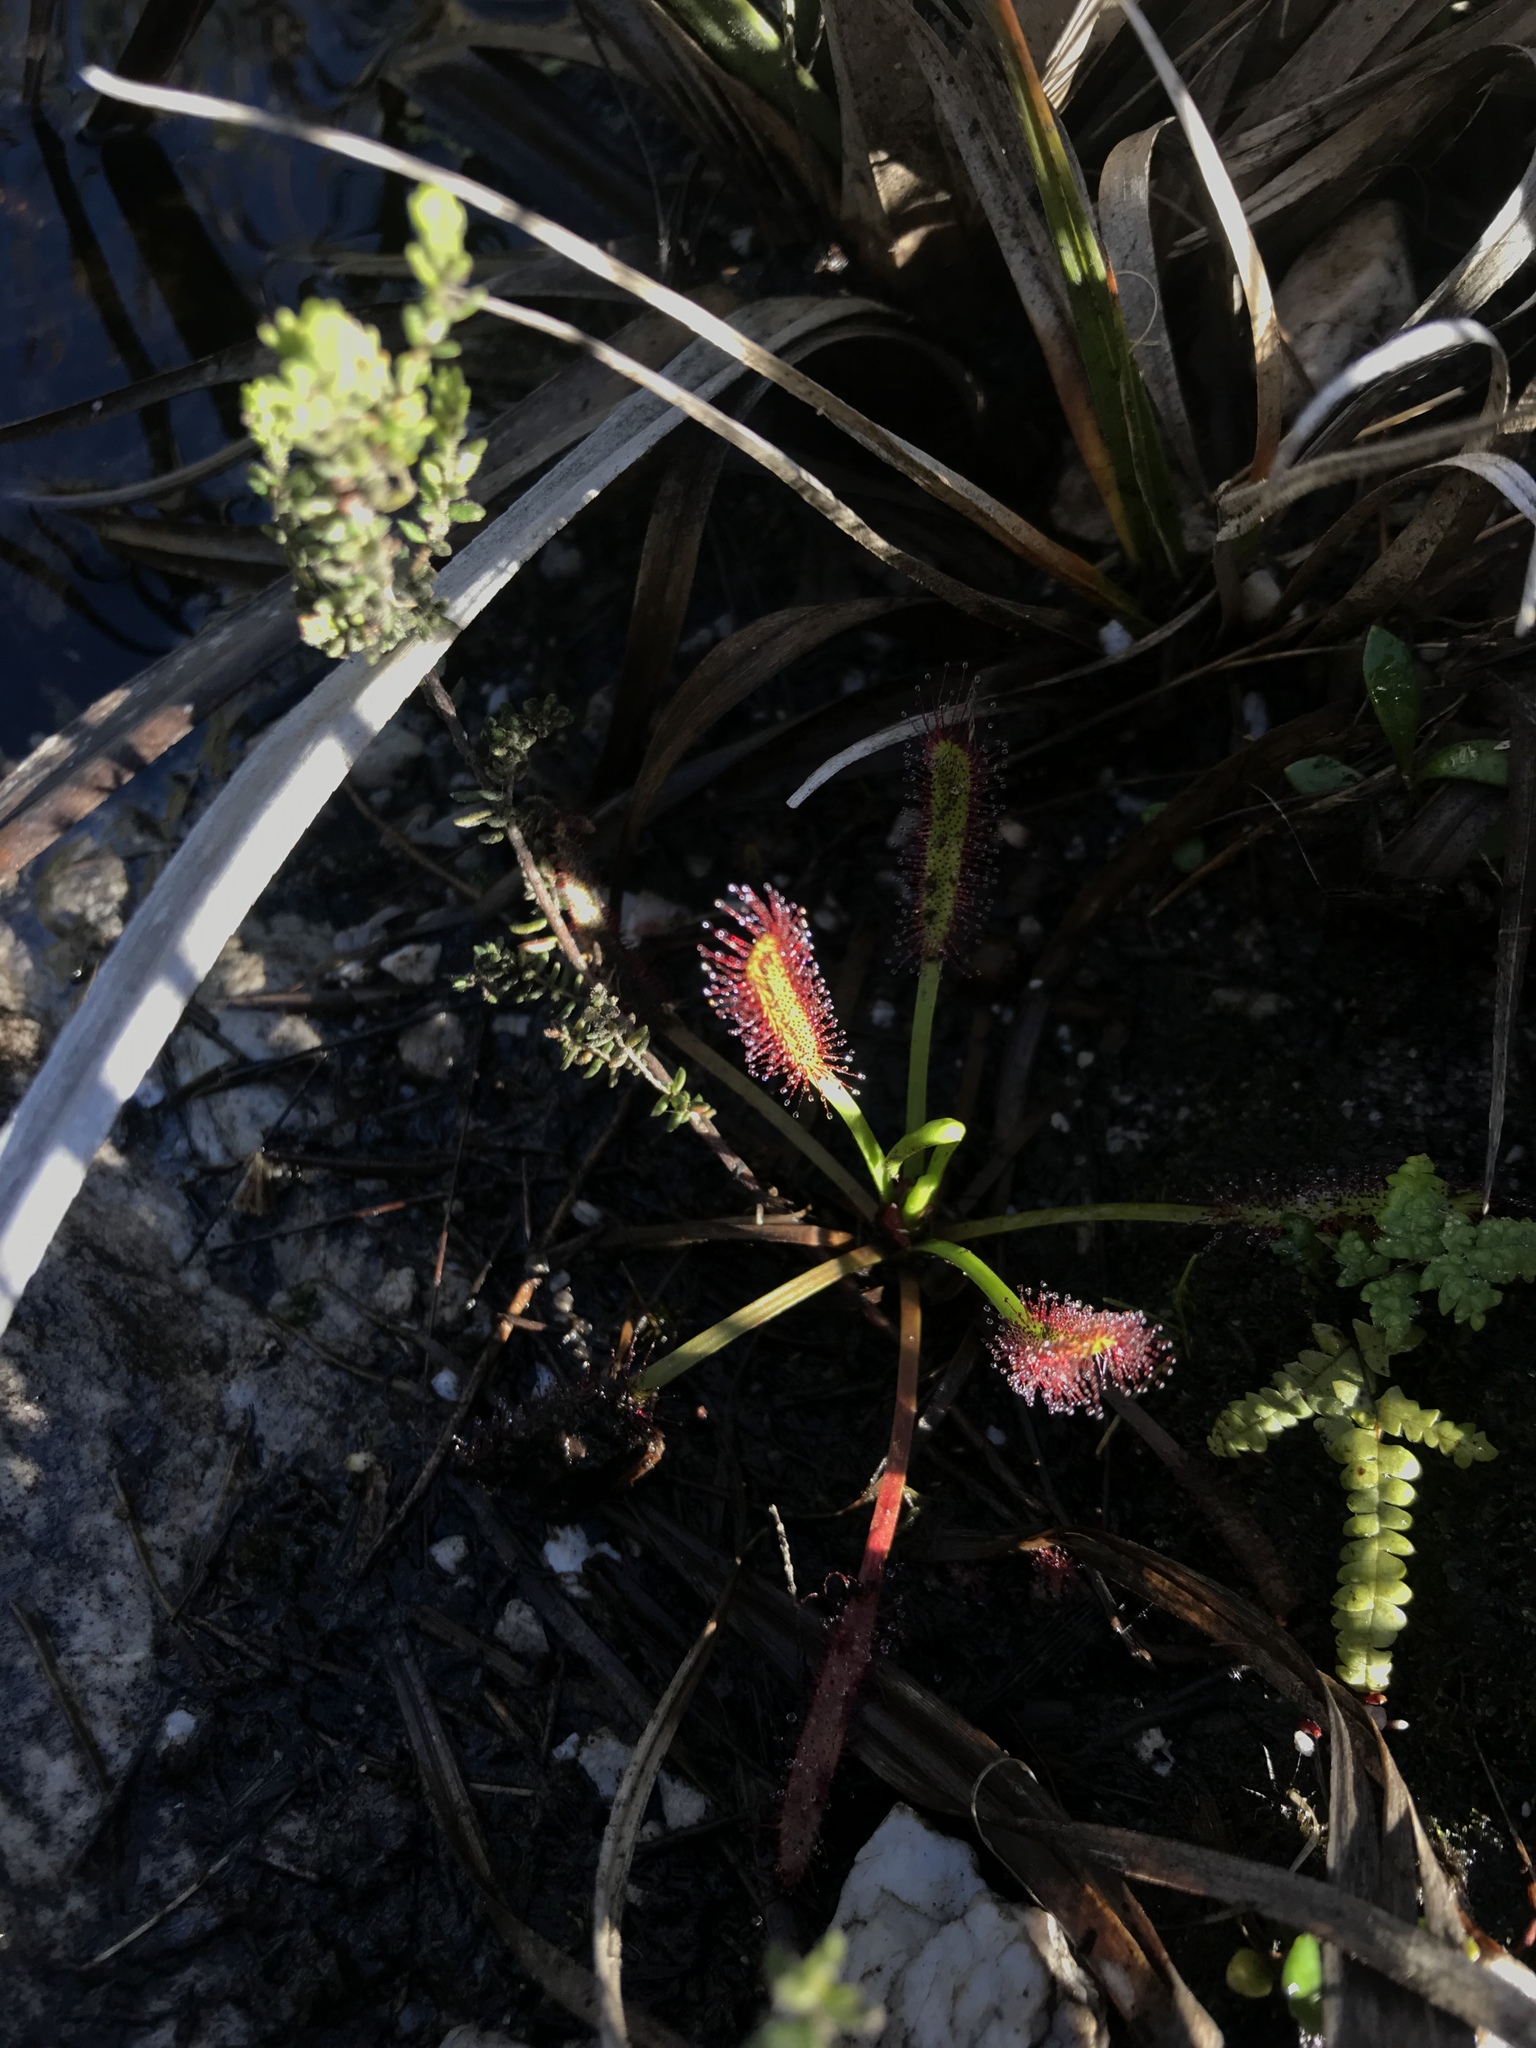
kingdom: Plantae
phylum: Tracheophyta
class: Magnoliopsida
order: Caryophyllales
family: Droseraceae
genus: Drosera
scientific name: Drosera capensis
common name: Cape sundew
